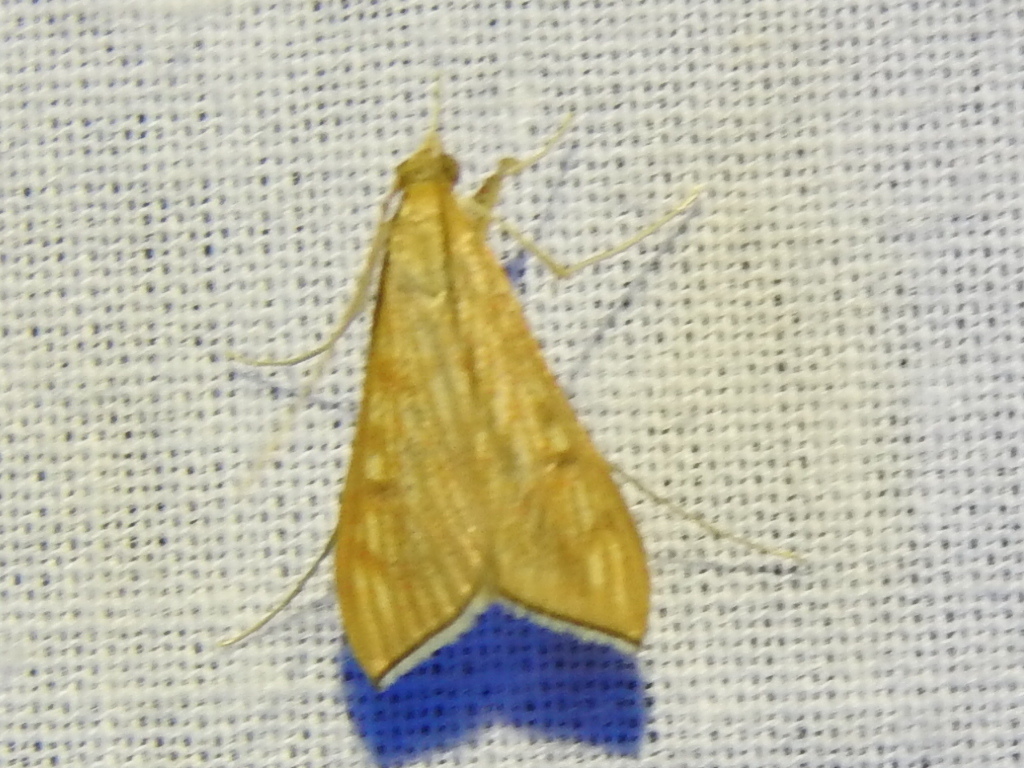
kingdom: Animalia
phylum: Arthropoda
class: Insecta
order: Lepidoptera
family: Crambidae
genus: Antigastra
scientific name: Antigastra catalaunalis
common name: Spanish dot
